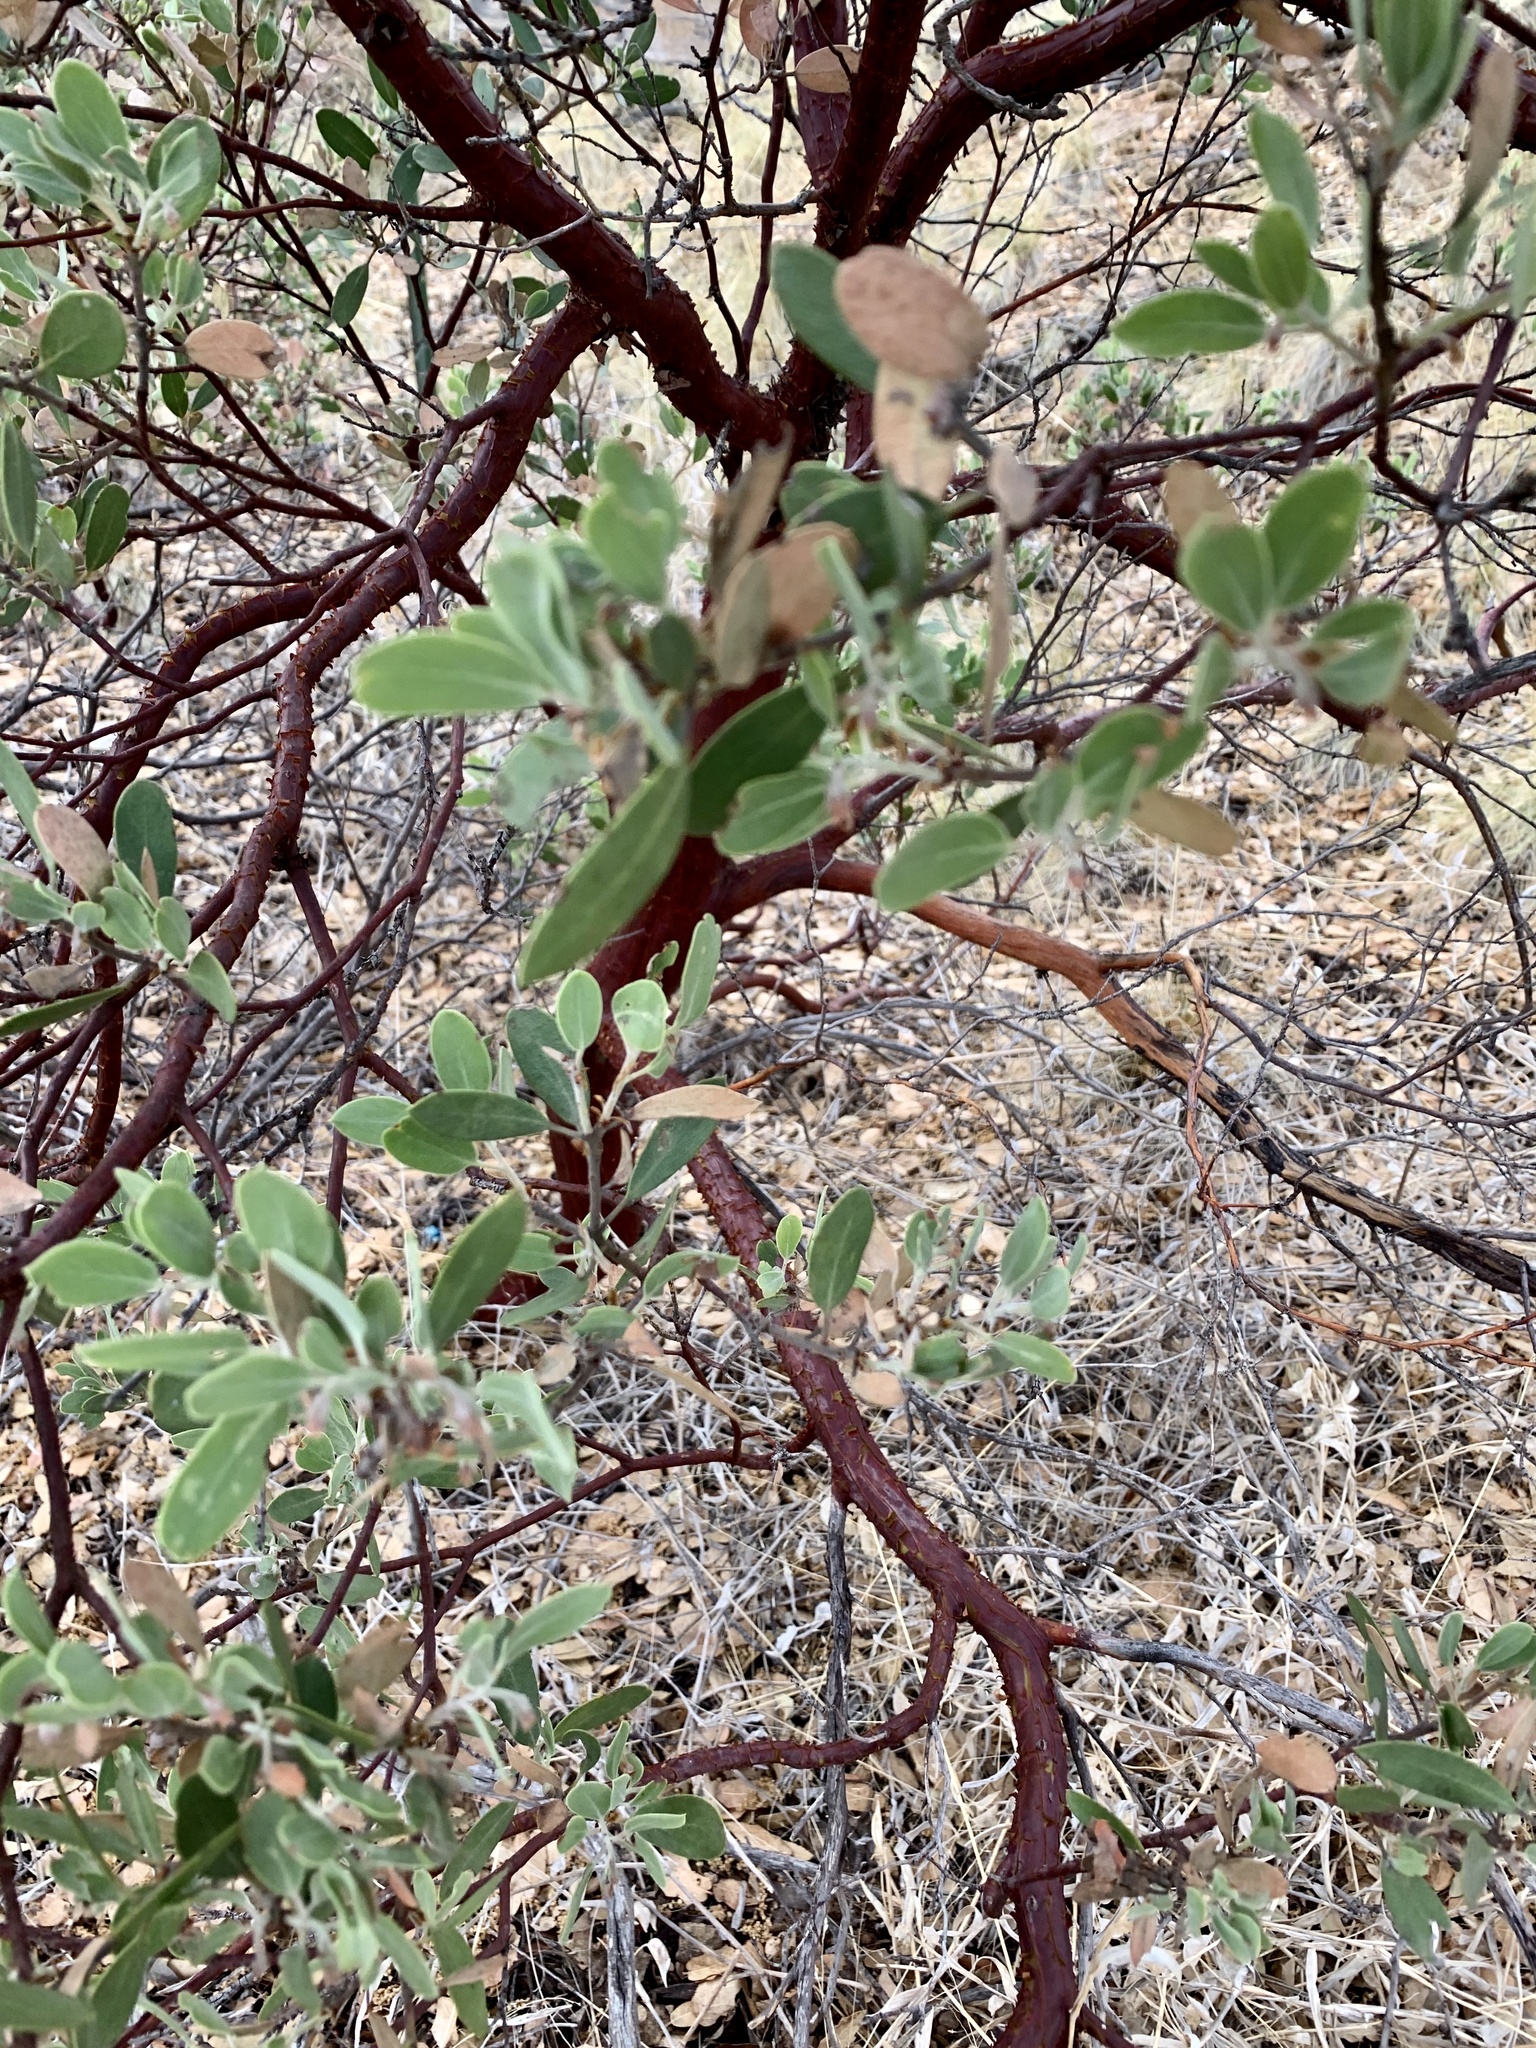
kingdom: Plantae
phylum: Tracheophyta
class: Magnoliopsida
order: Ericales
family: Ericaceae
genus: Arctostaphylos
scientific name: Arctostaphylos pungens
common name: Mexican manzanita
